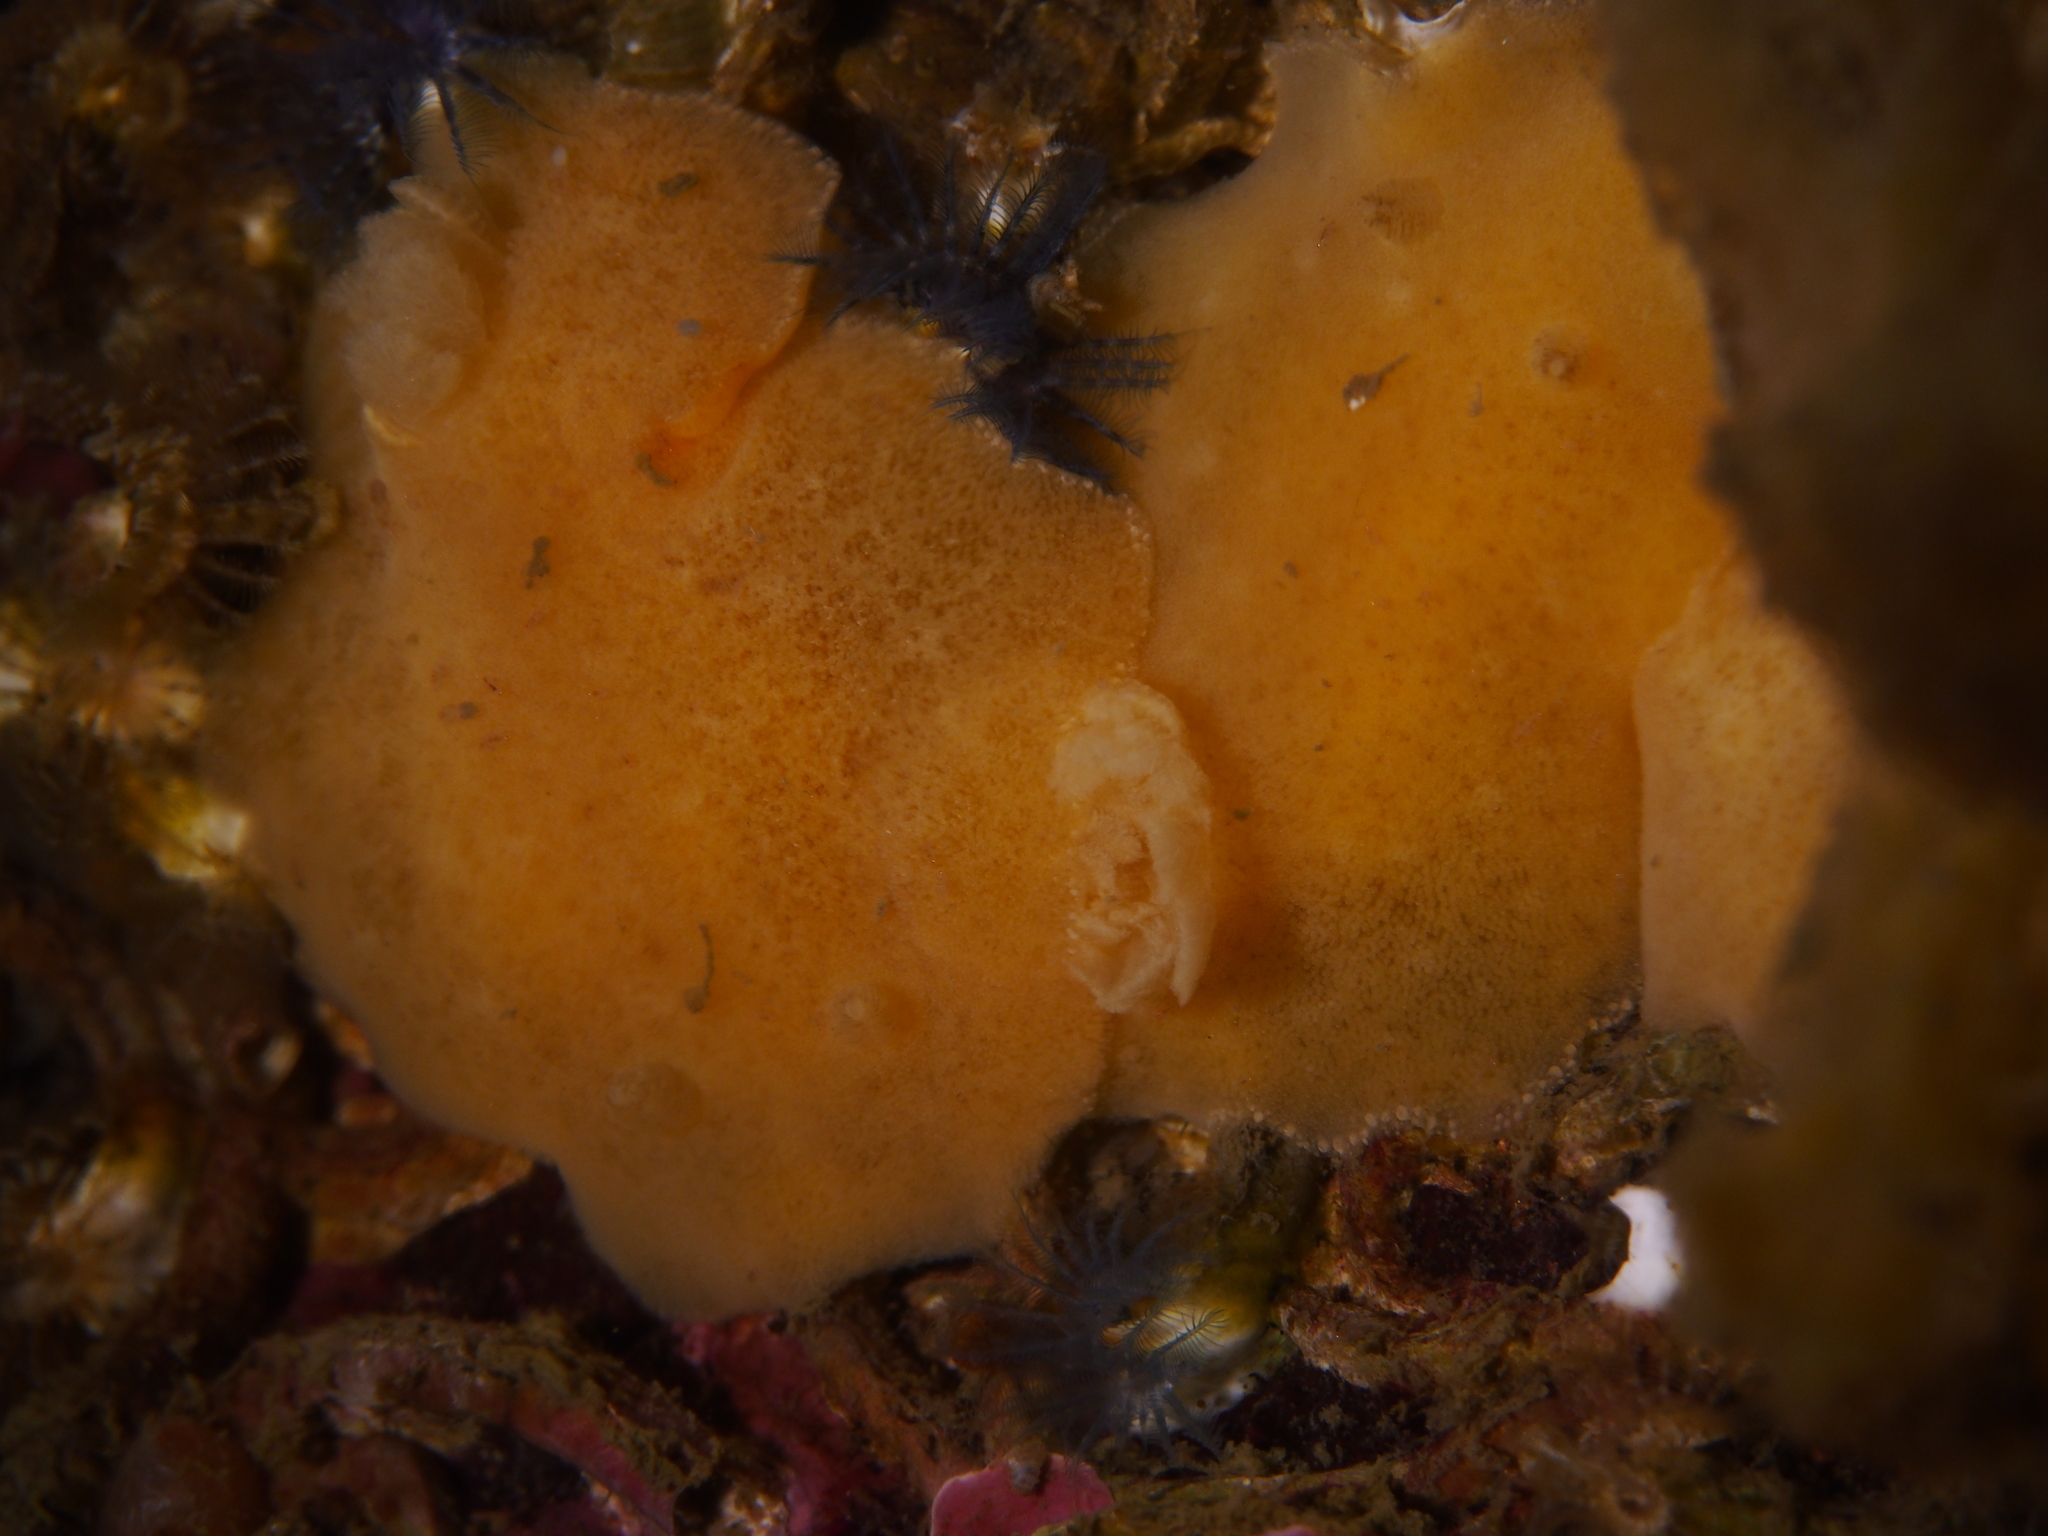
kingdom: Animalia
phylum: Mollusca
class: Gastropoda
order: Nudibranchia
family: Discodorididae
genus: Jorunna
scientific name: Jorunna tomentosa
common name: Grey sea slug
